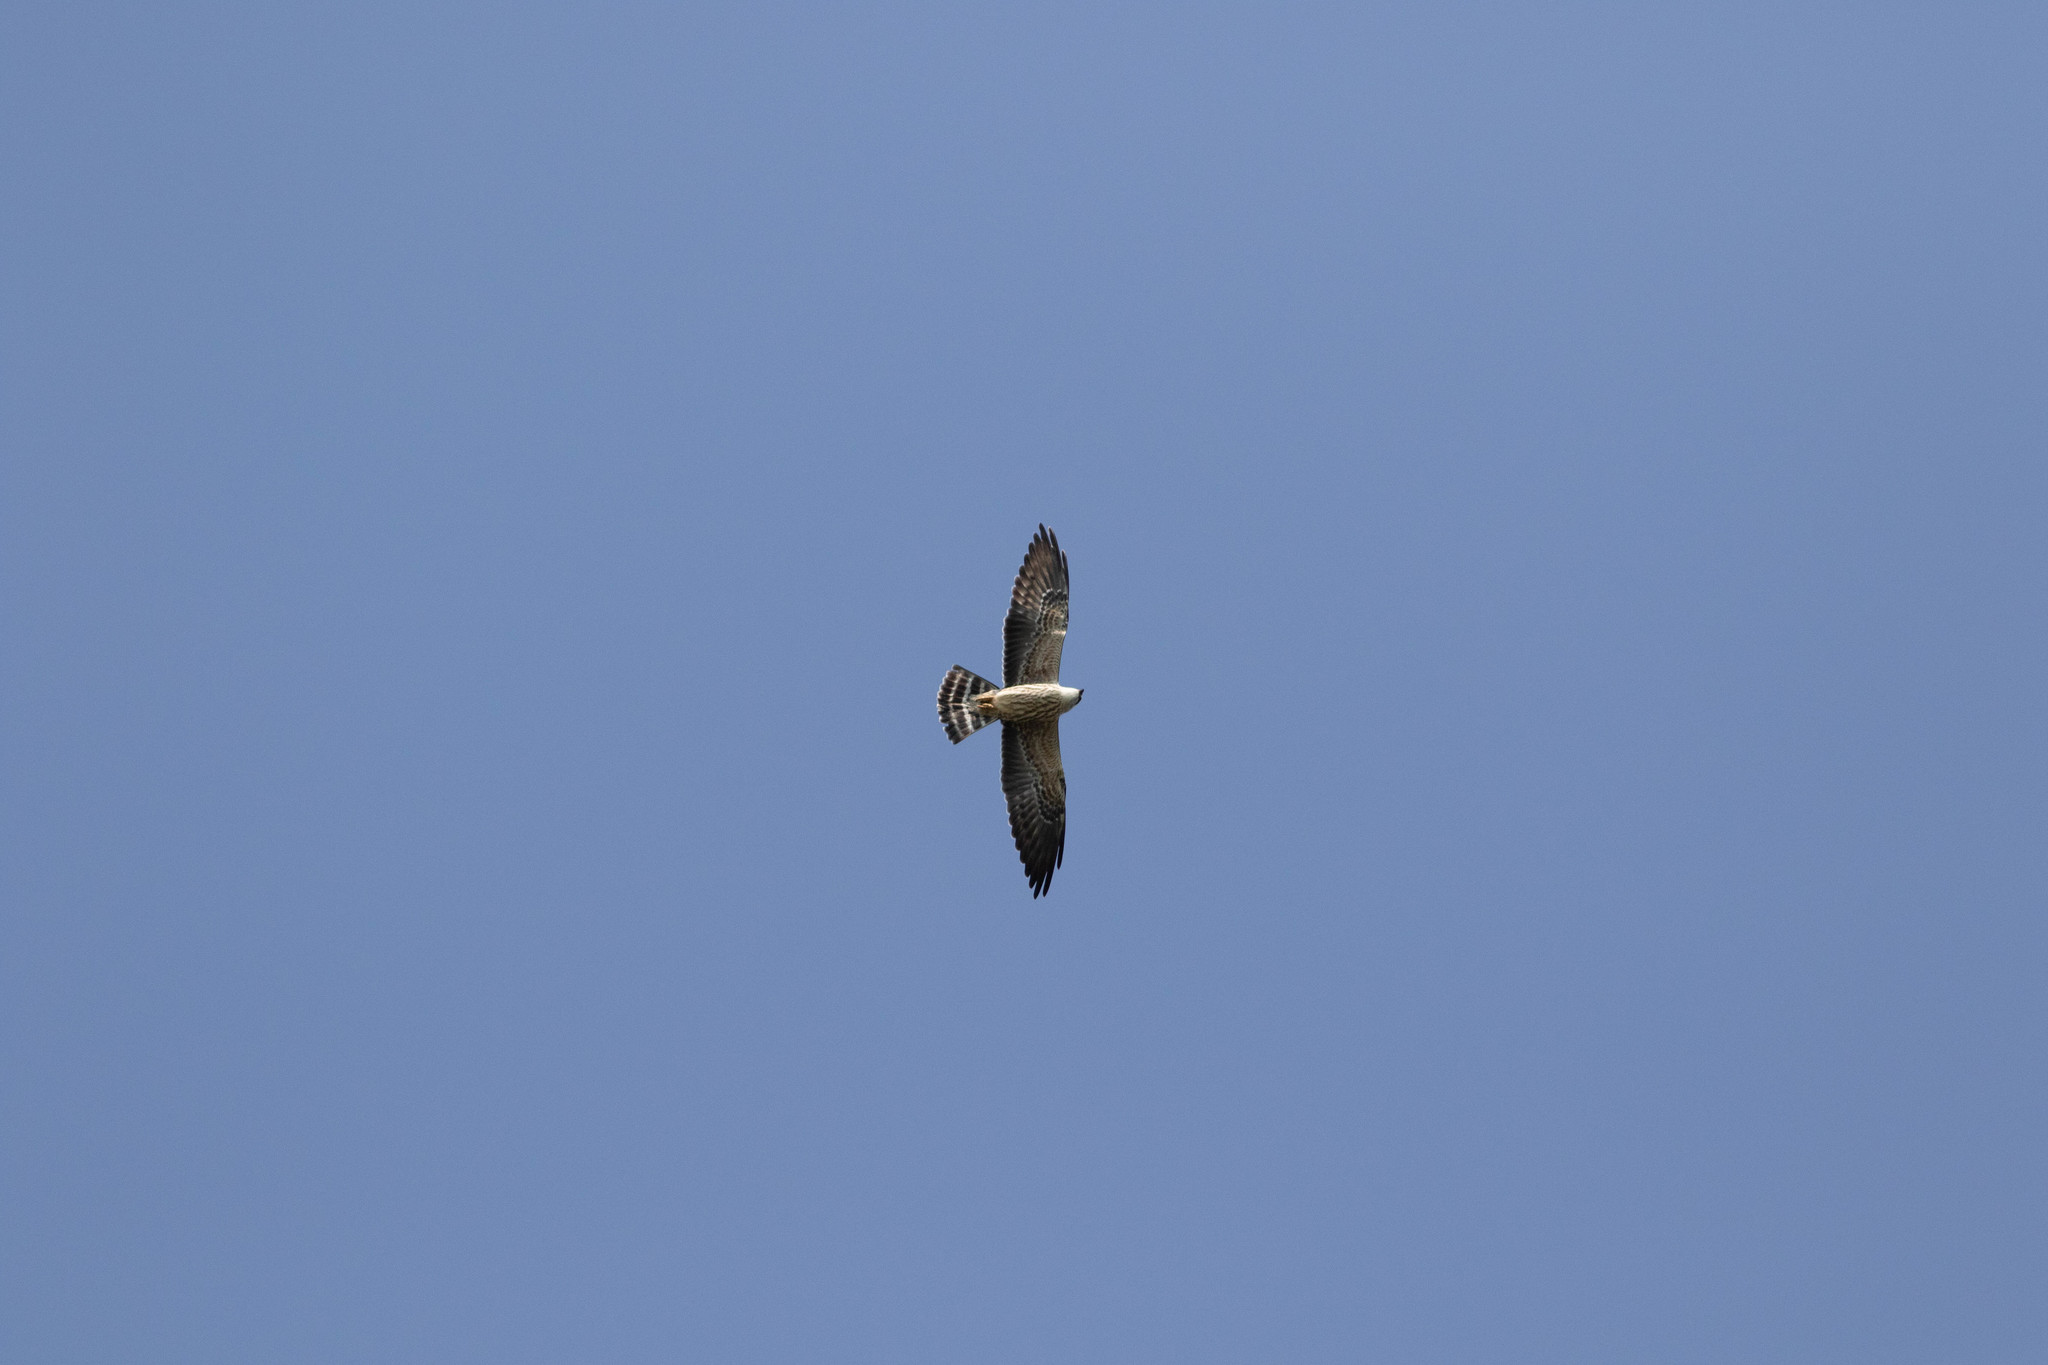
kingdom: Animalia
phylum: Chordata
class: Aves
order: Accipitriformes
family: Accipitridae
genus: Ictinia
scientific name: Ictinia mississippiensis
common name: Mississippi kite
